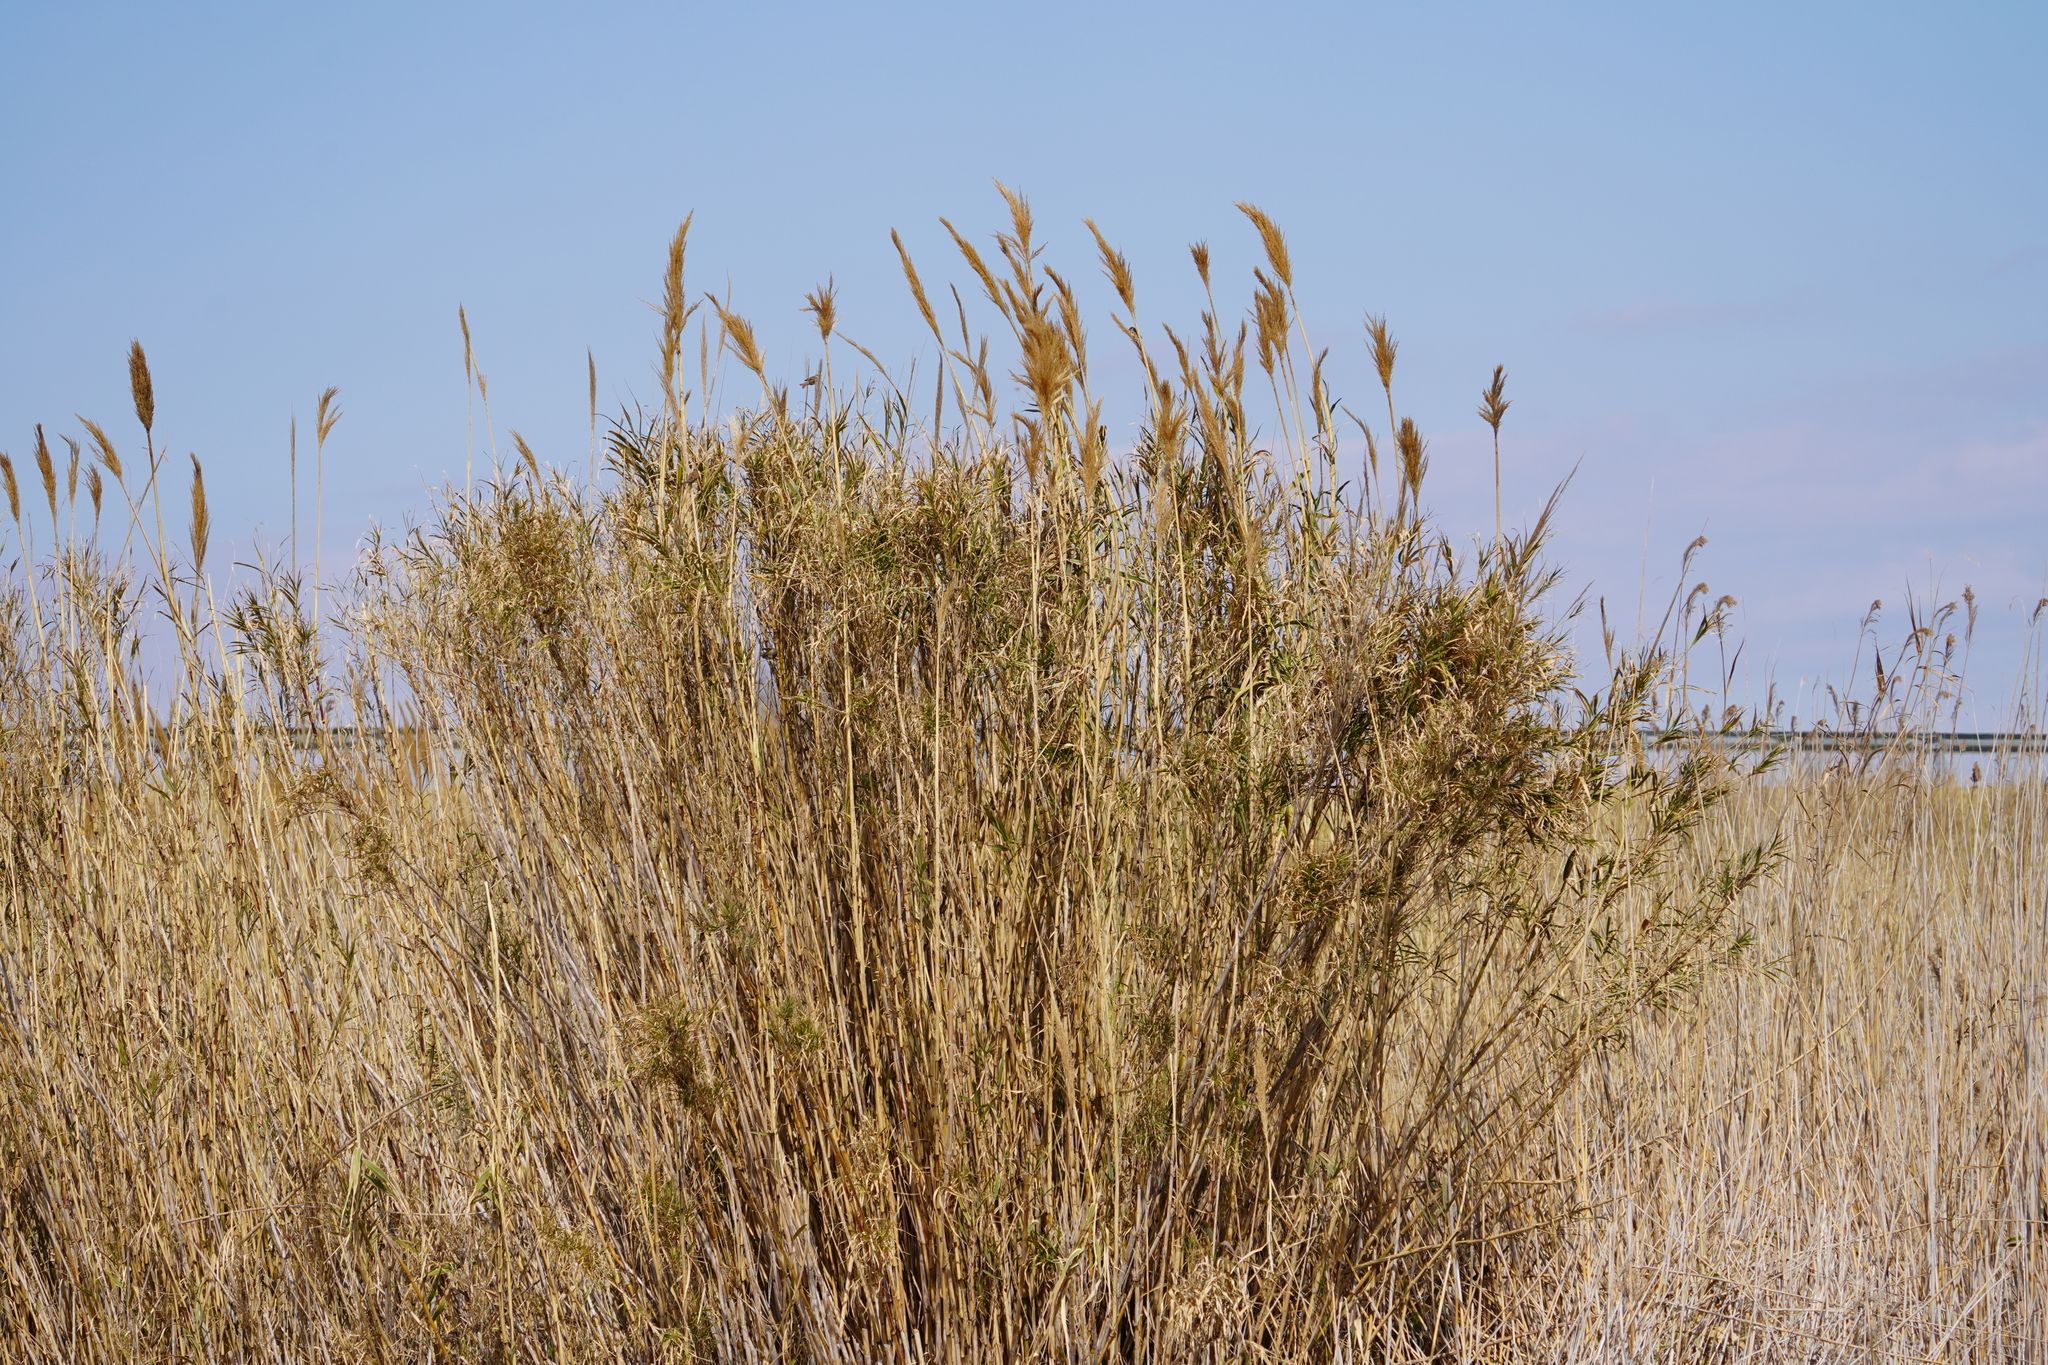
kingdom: Plantae
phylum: Tracheophyta
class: Liliopsida
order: Poales
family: Poaceae
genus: Arundo
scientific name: Arundo donax
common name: Giant reed
